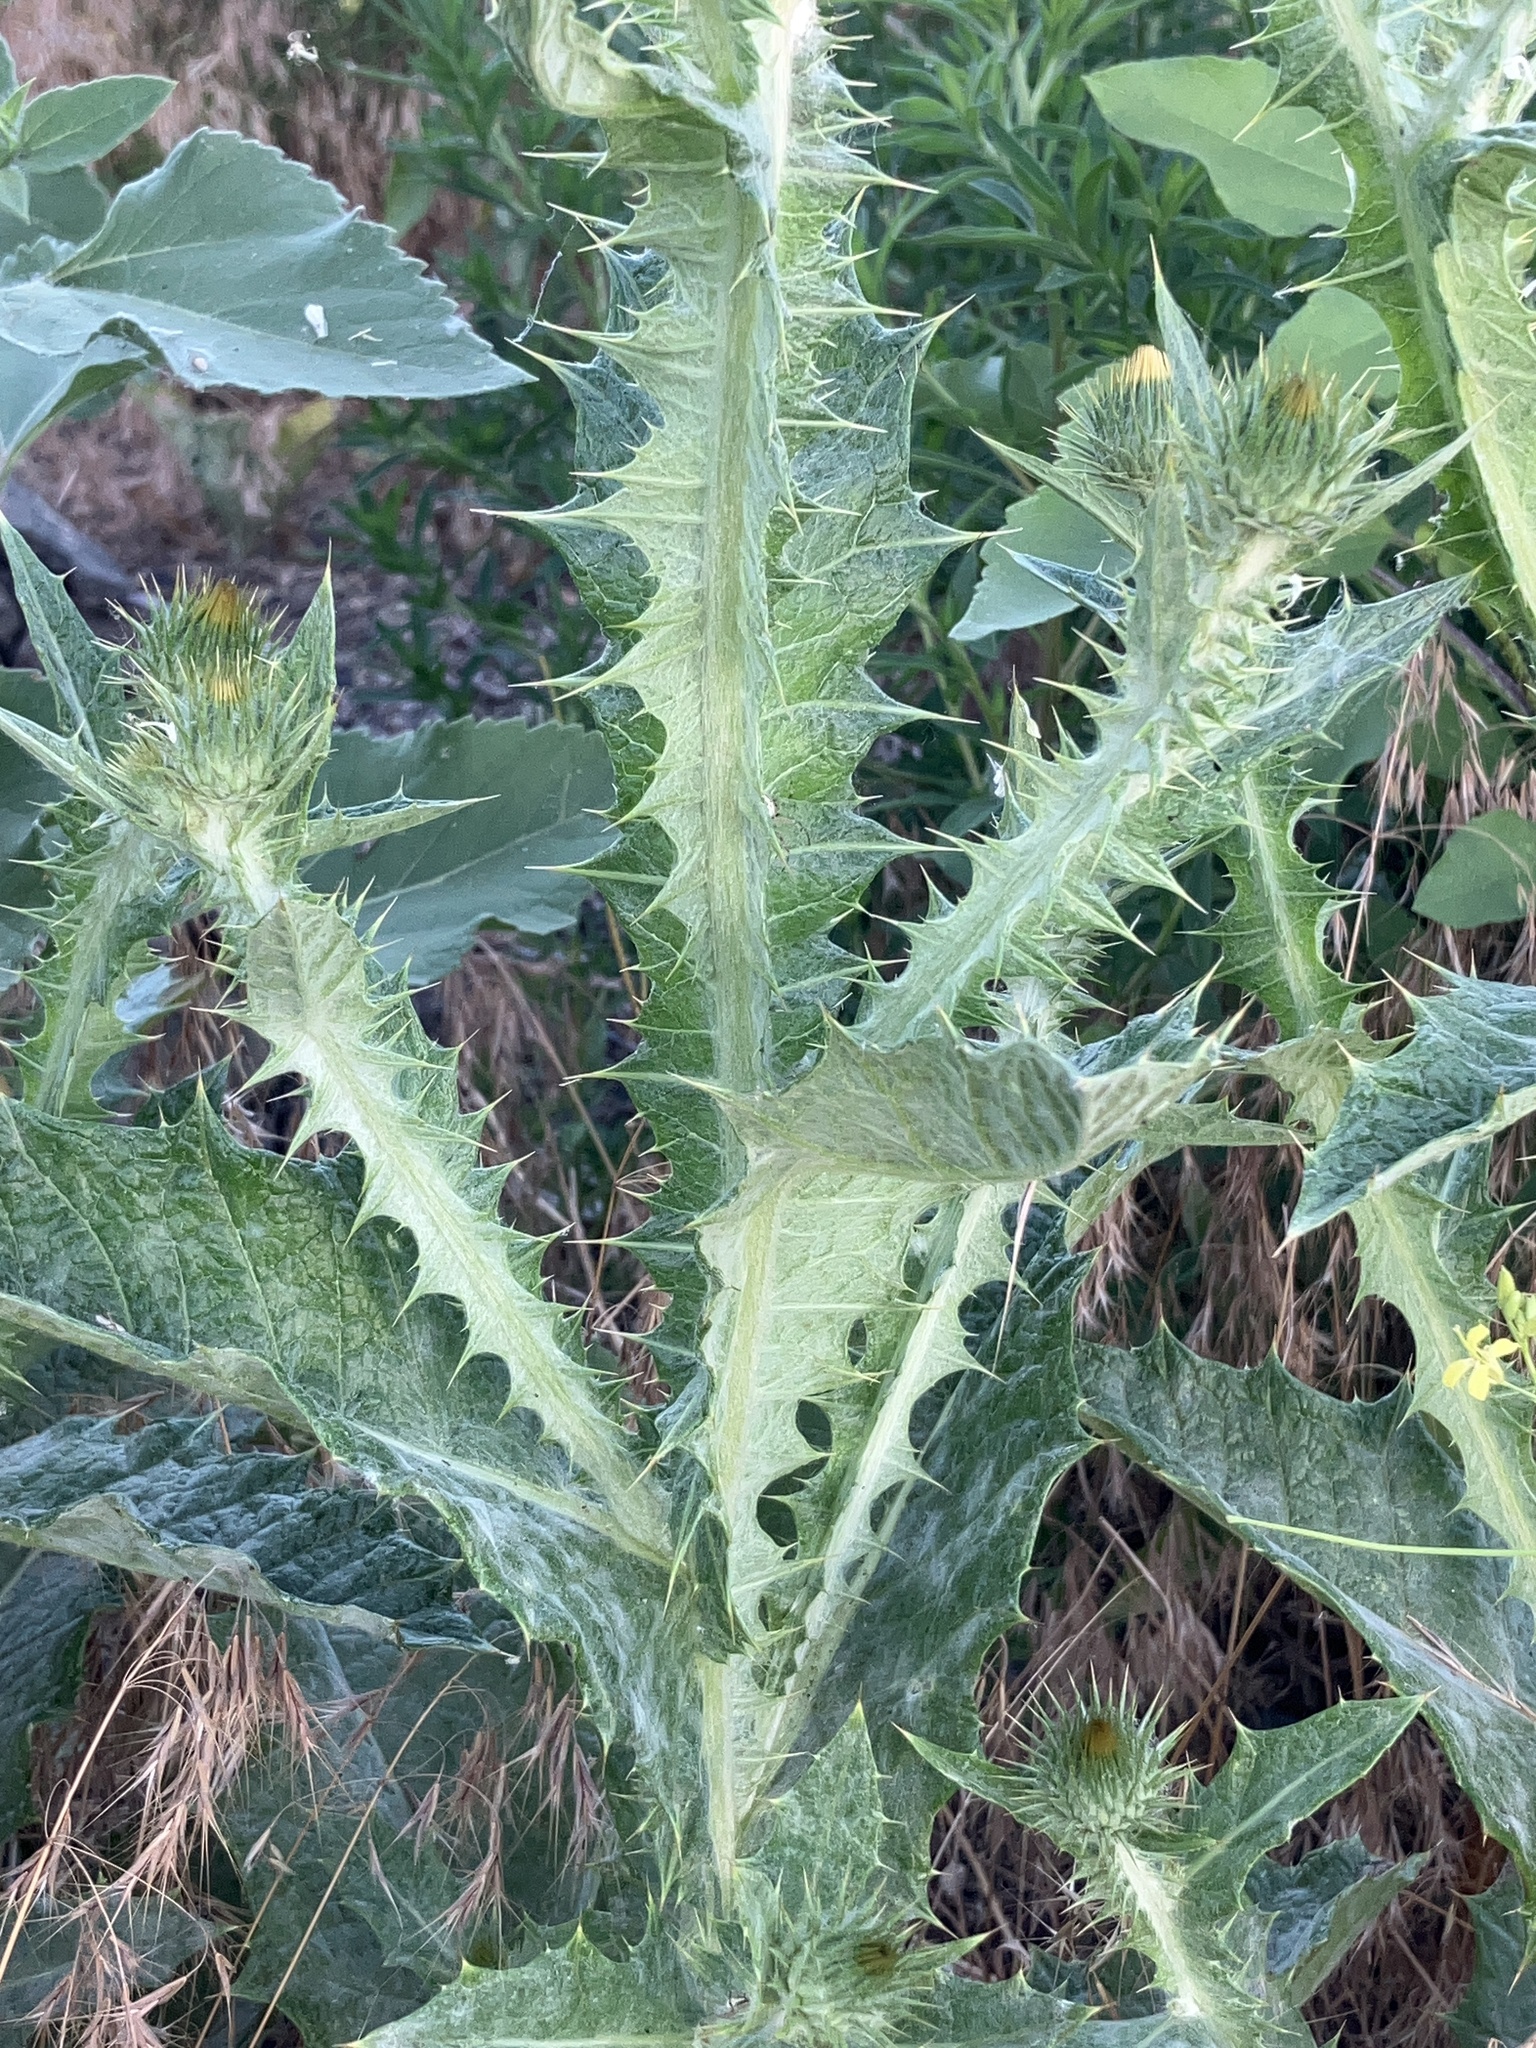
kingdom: Plantae
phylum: Tracheophyta
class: Magnoliopsida
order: Asterales
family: Asteraceae
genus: Onopordum
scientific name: Onopordum acanthium
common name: Scotch thistle
